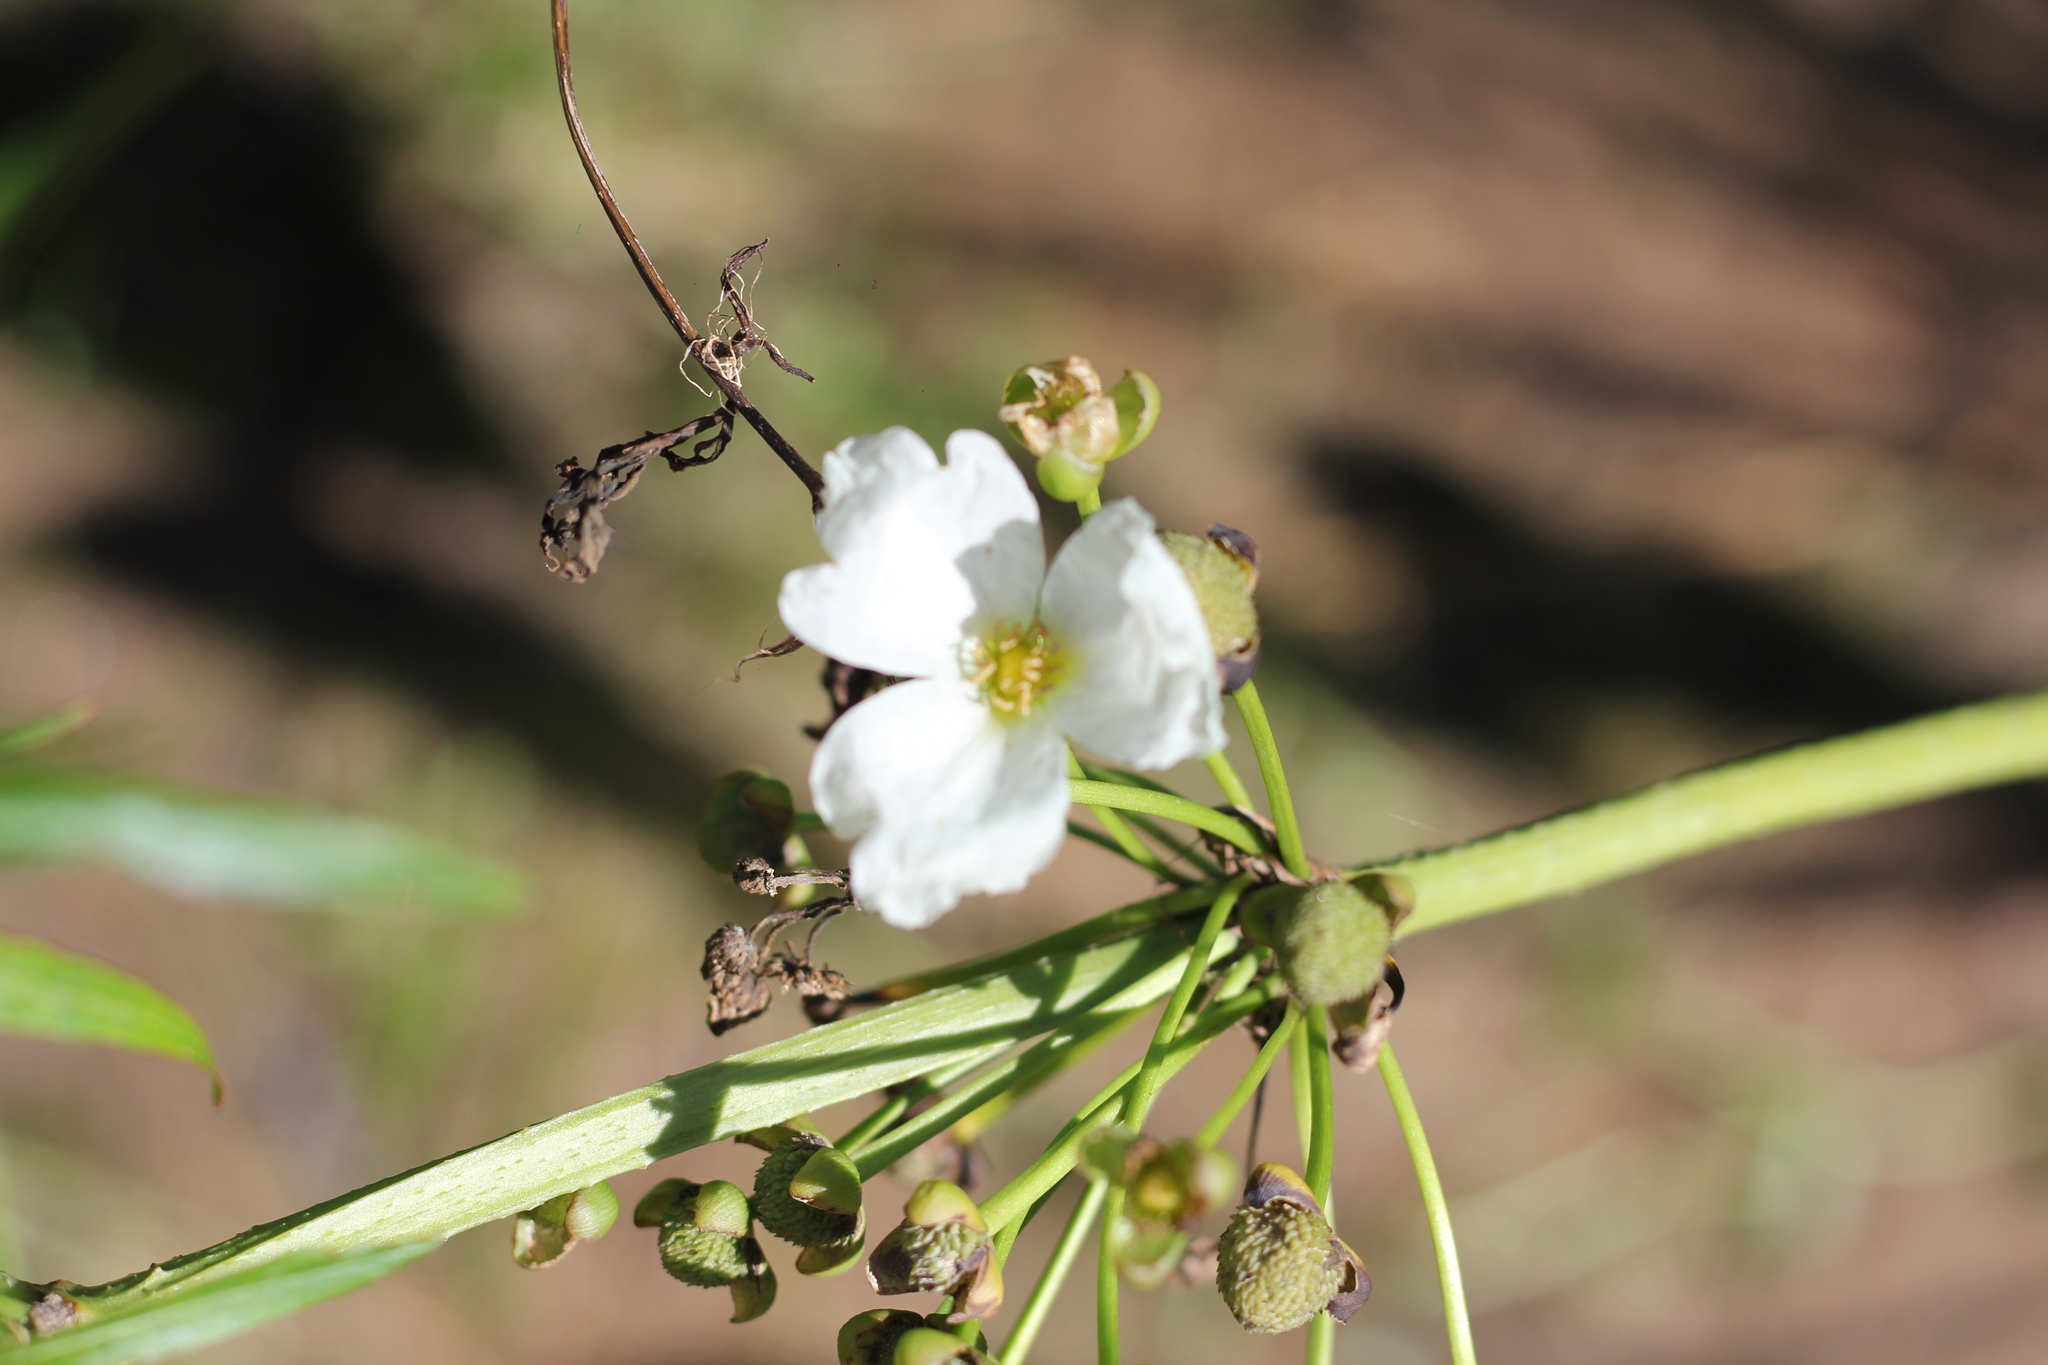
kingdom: Plantae
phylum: Tracheophyta
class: Liliopsida
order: Alismatales
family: Alismataceae
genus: Aquarius
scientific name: Aquarius grandiflorus
